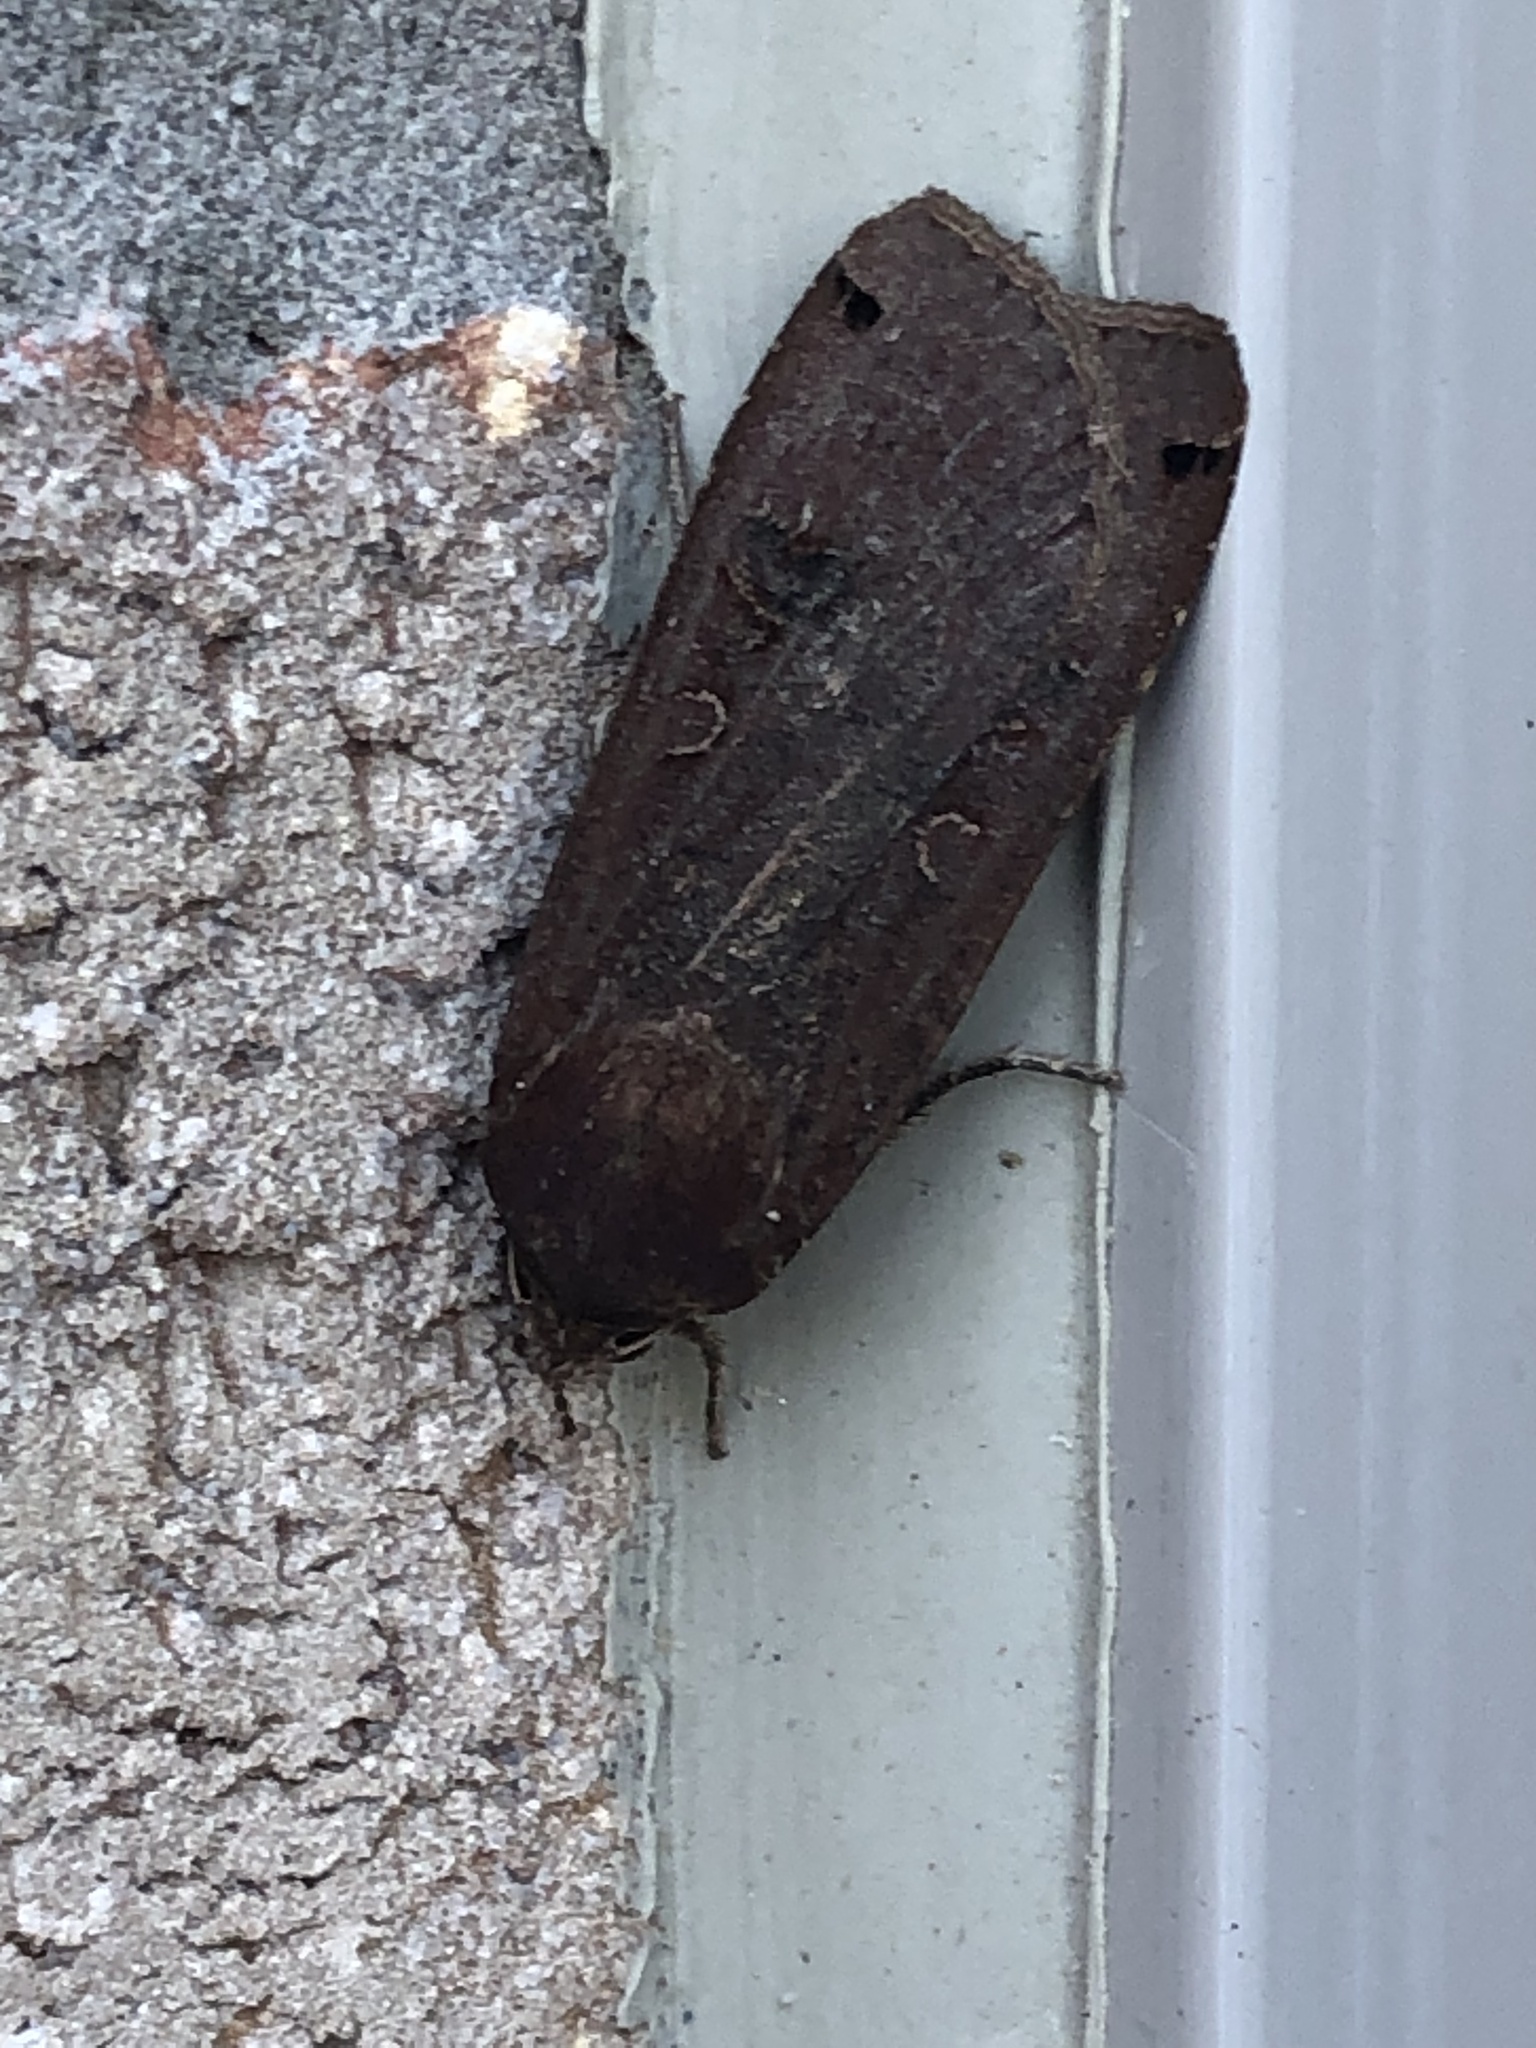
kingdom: Animalia
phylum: Arthropoda
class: Insecta
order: Lepidoptera
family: Noctuidae
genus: Noctua
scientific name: Noctua pronuba
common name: Large yellow underwing
